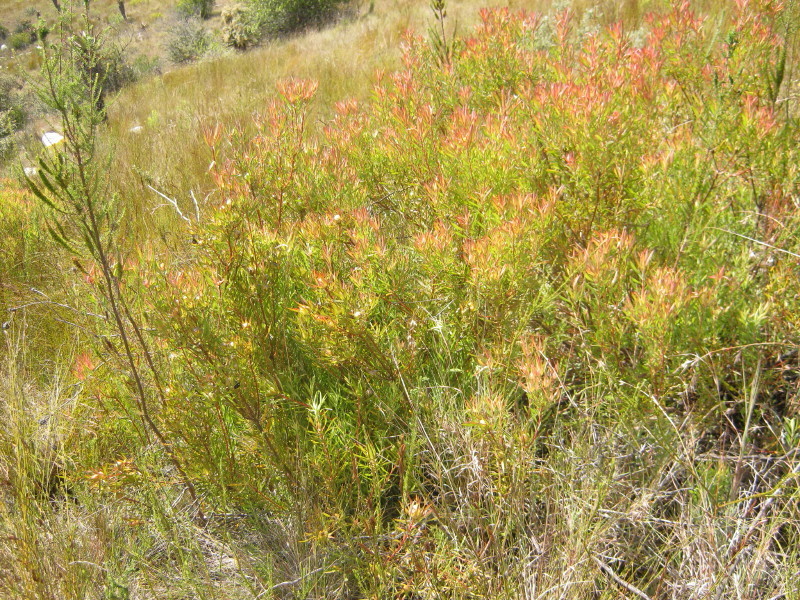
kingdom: Plantae
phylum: Tracheophyta
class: Magnoliopsida
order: Proteales
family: Proteaceae
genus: Leucadendron
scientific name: Leucadendron salignum
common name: Common sunshine conebush
